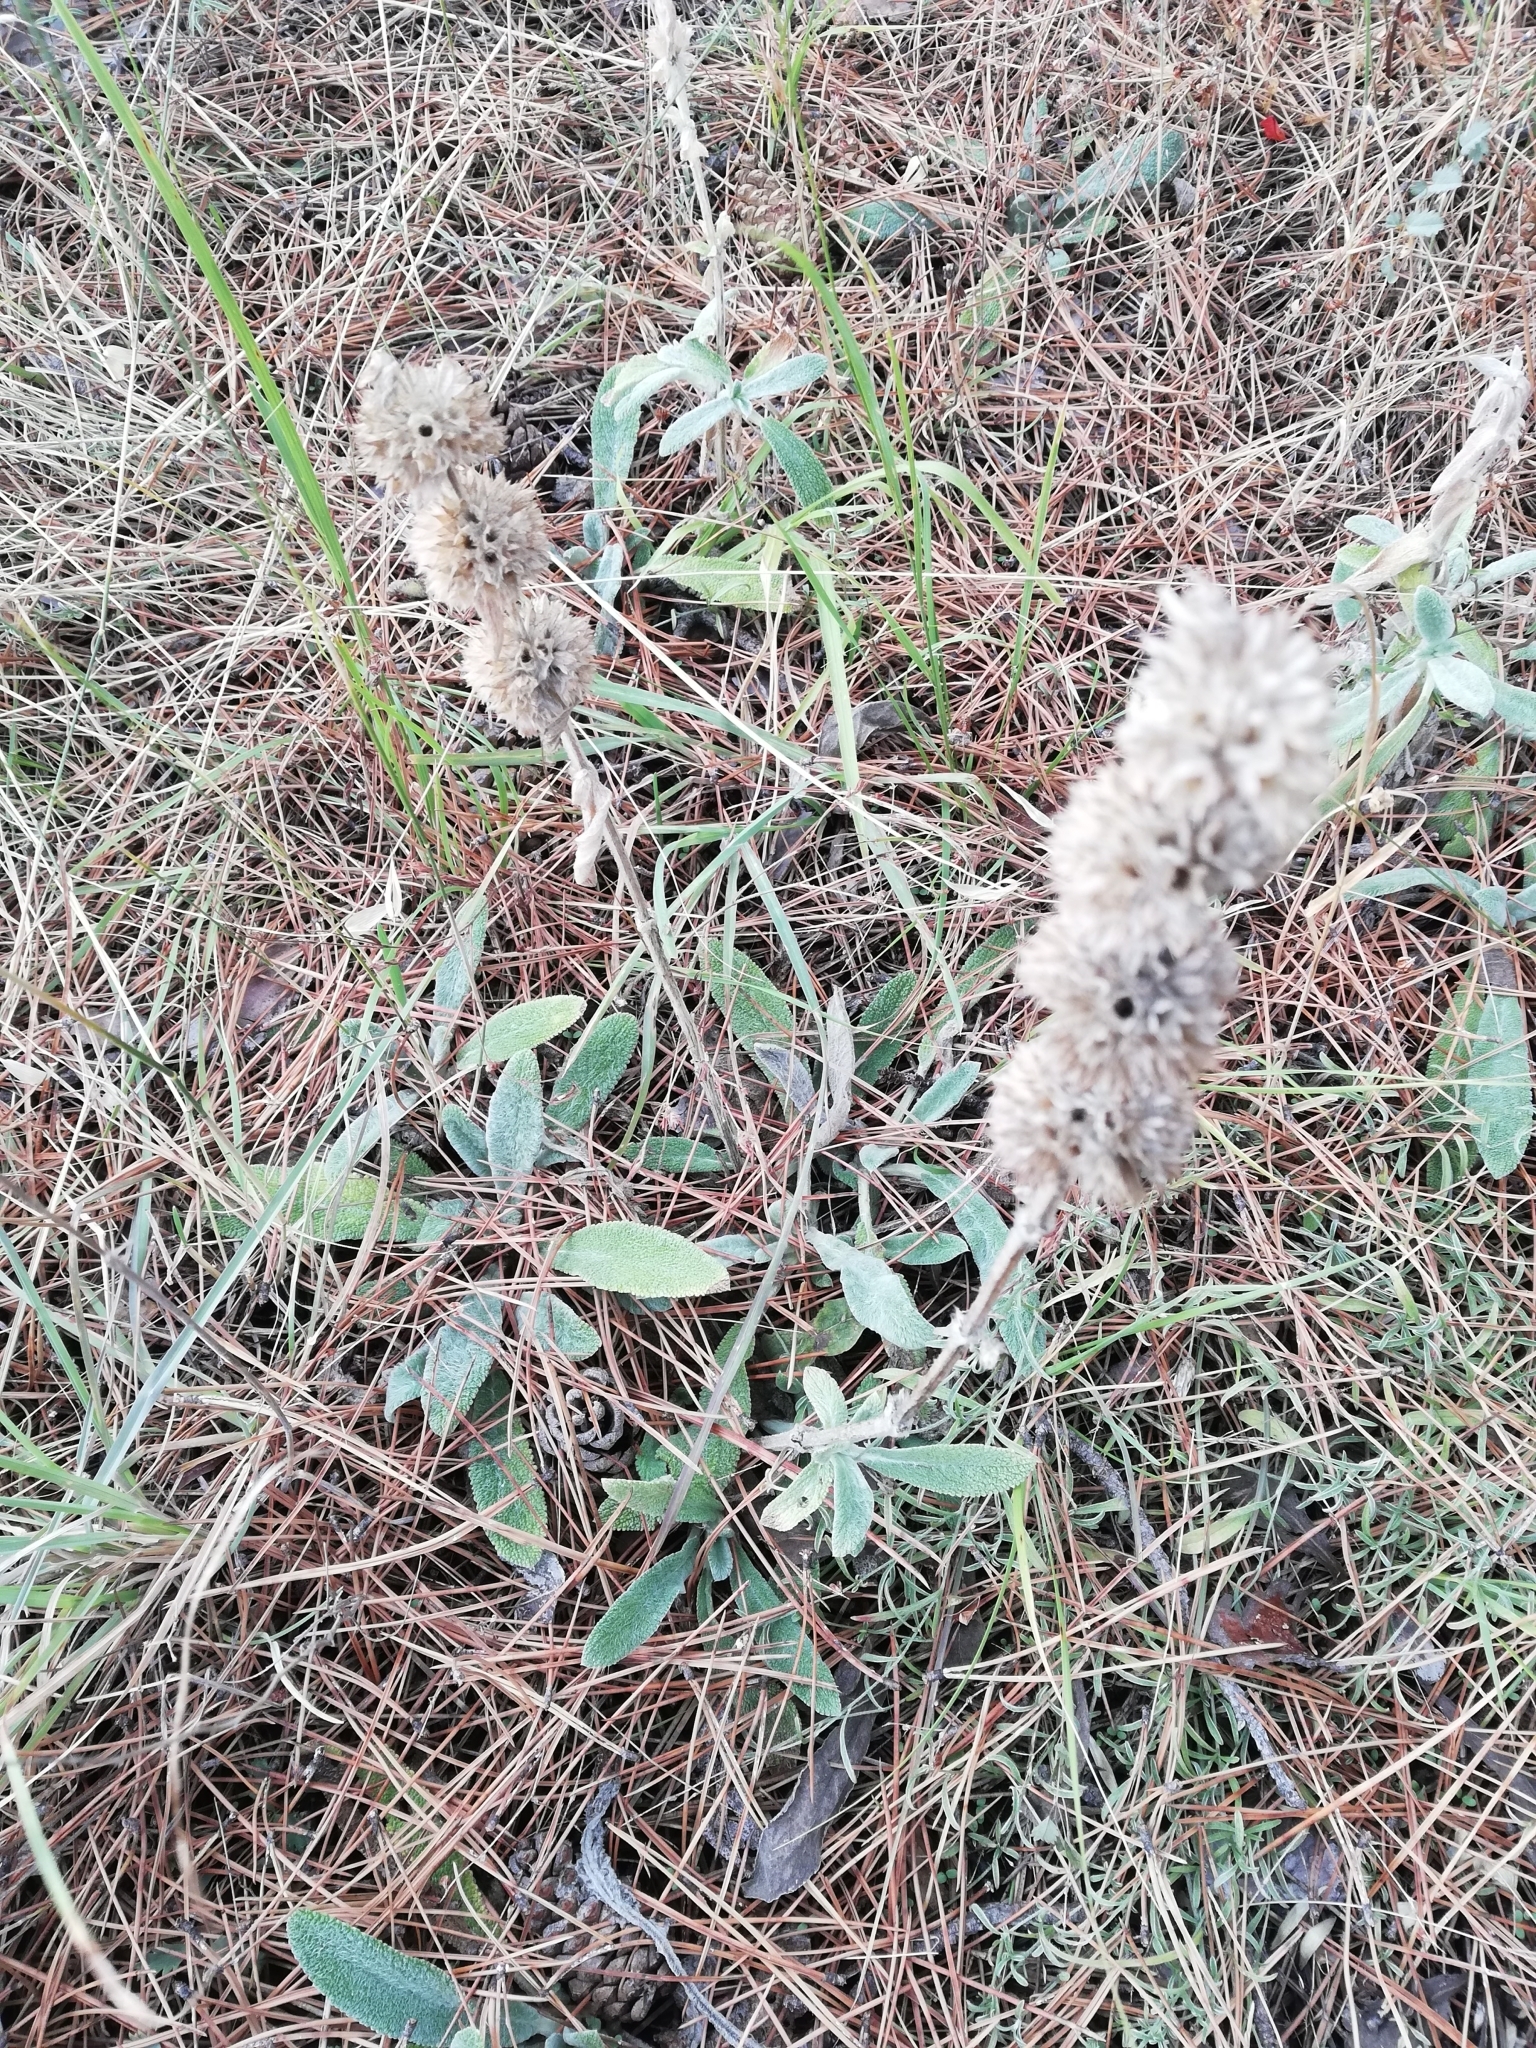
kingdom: Plantae
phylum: Tracheophyta
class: Magnoliopsida
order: Lamiales
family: Lamiaceae
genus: Stachys
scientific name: Stachys cretica
